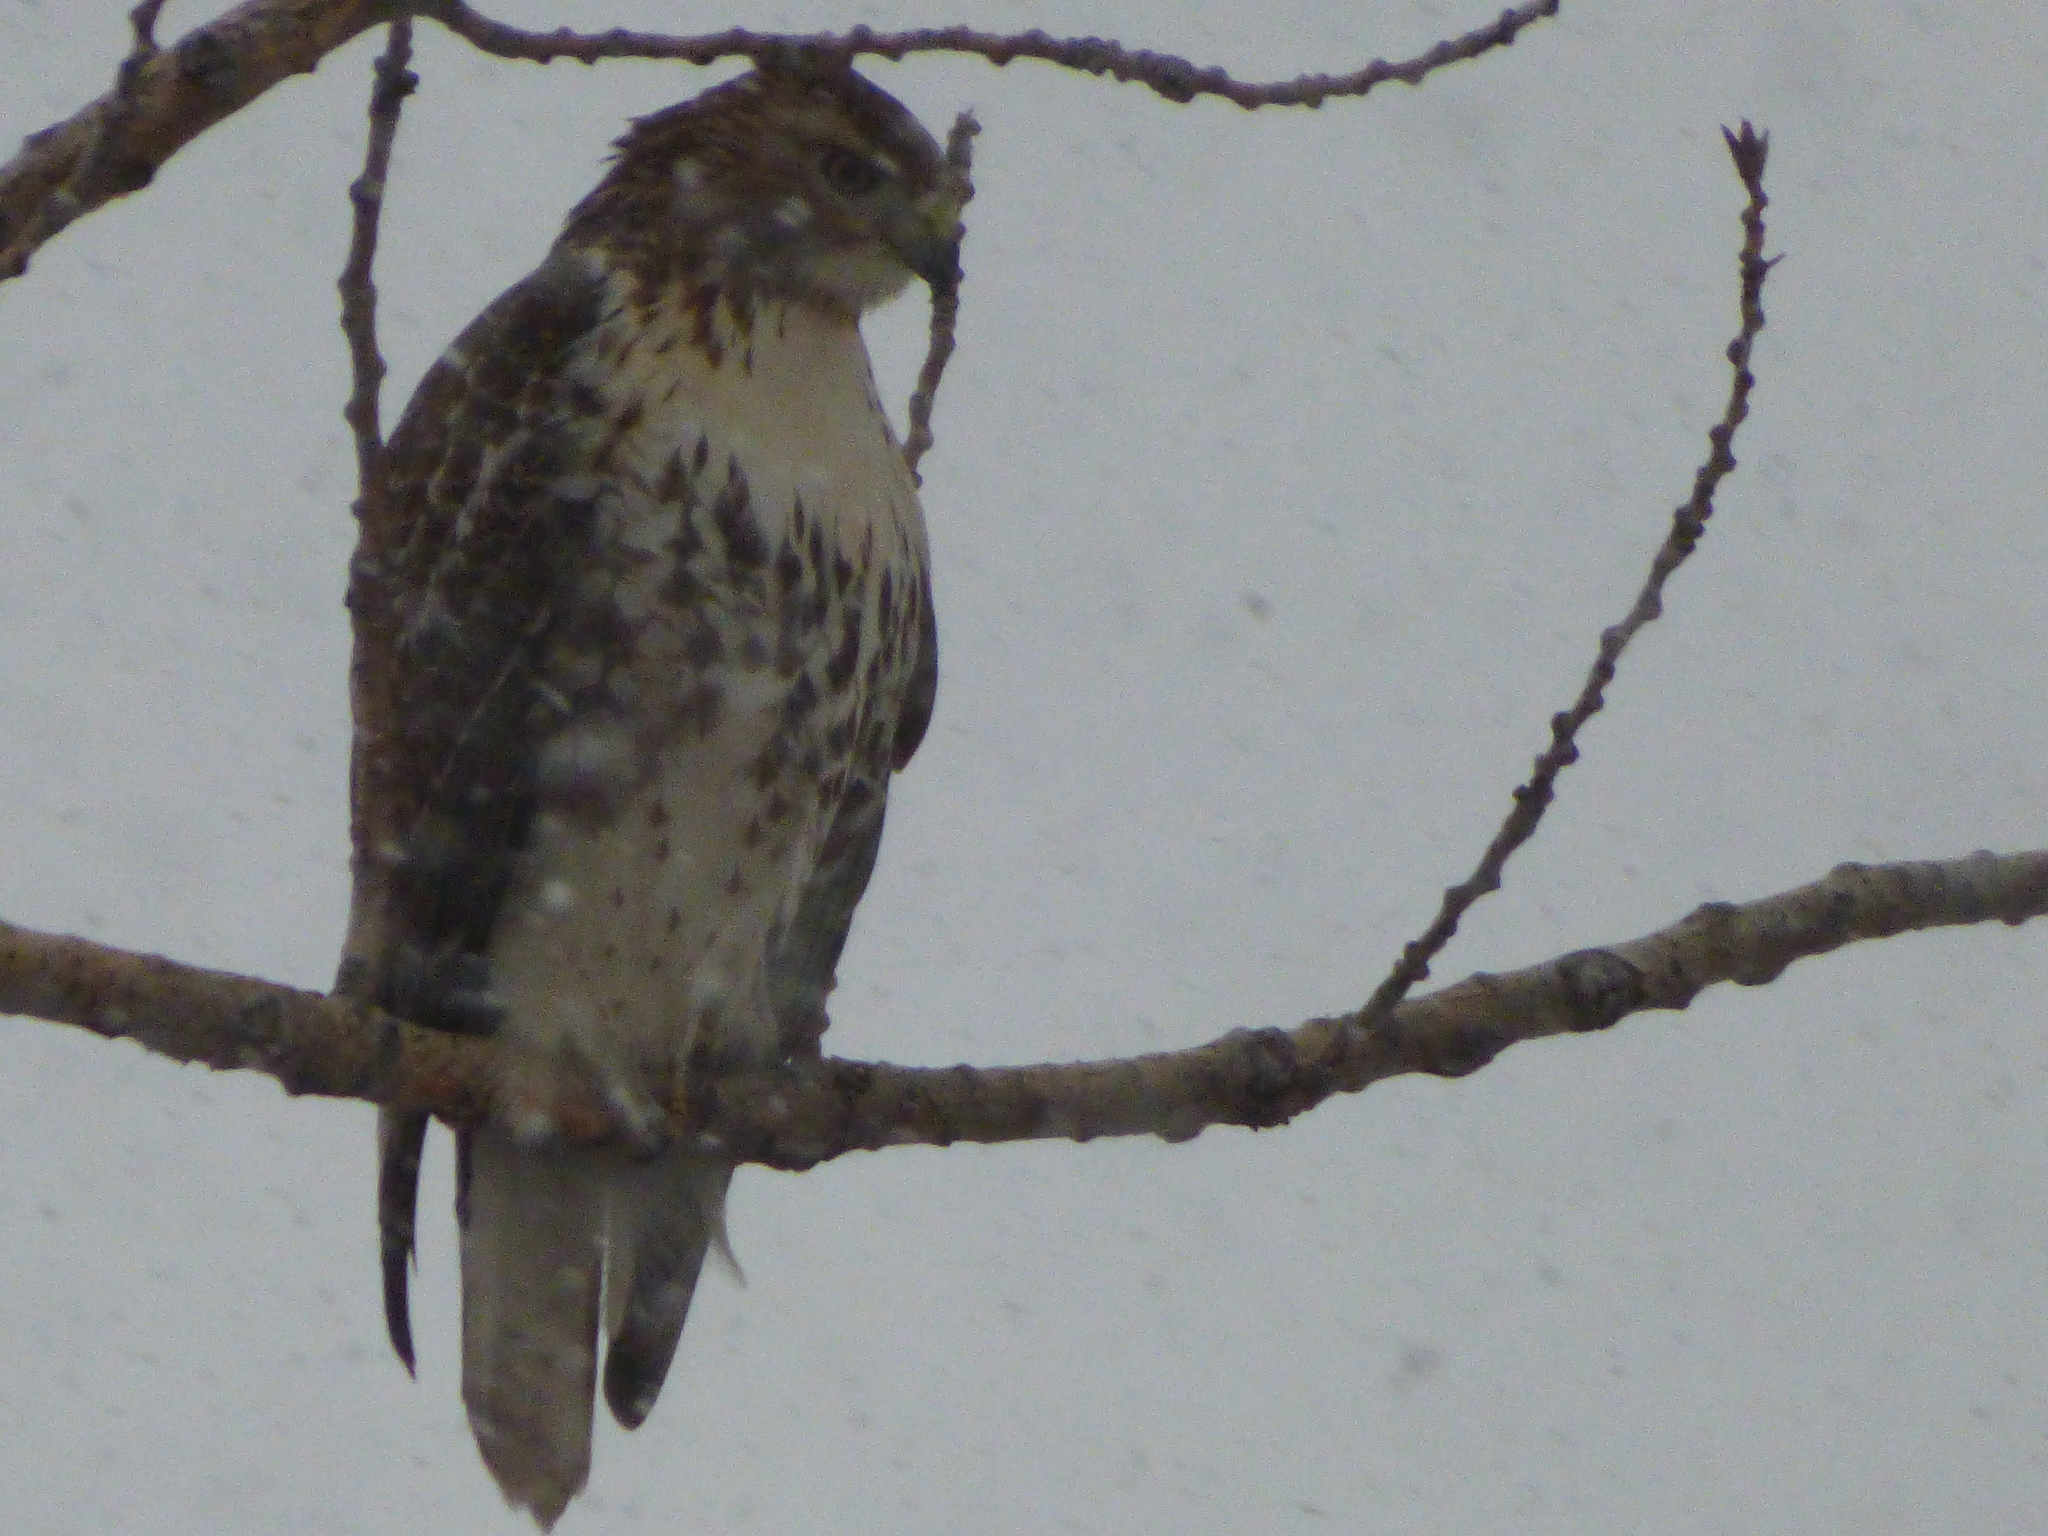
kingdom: Animalia
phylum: Chordata
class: Aves
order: Accipitriformes
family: Accipitridae
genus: Buteo
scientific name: Buteo jamaicensis
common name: Red-tailed hawk
